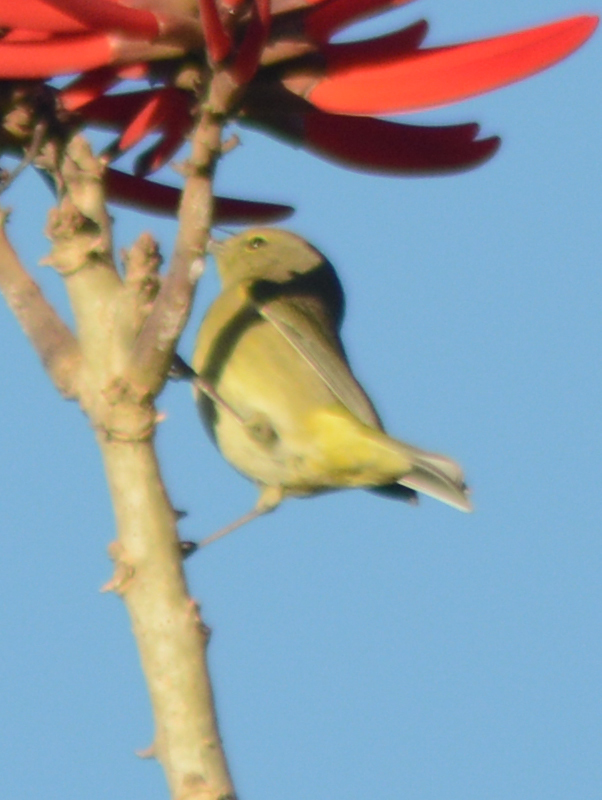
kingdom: Animalia
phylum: Chordata
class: Aves
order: Passeriformes
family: Parulidae
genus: Leiothlypis
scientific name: Leiothlypis celata
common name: Orange-crowned warbler
